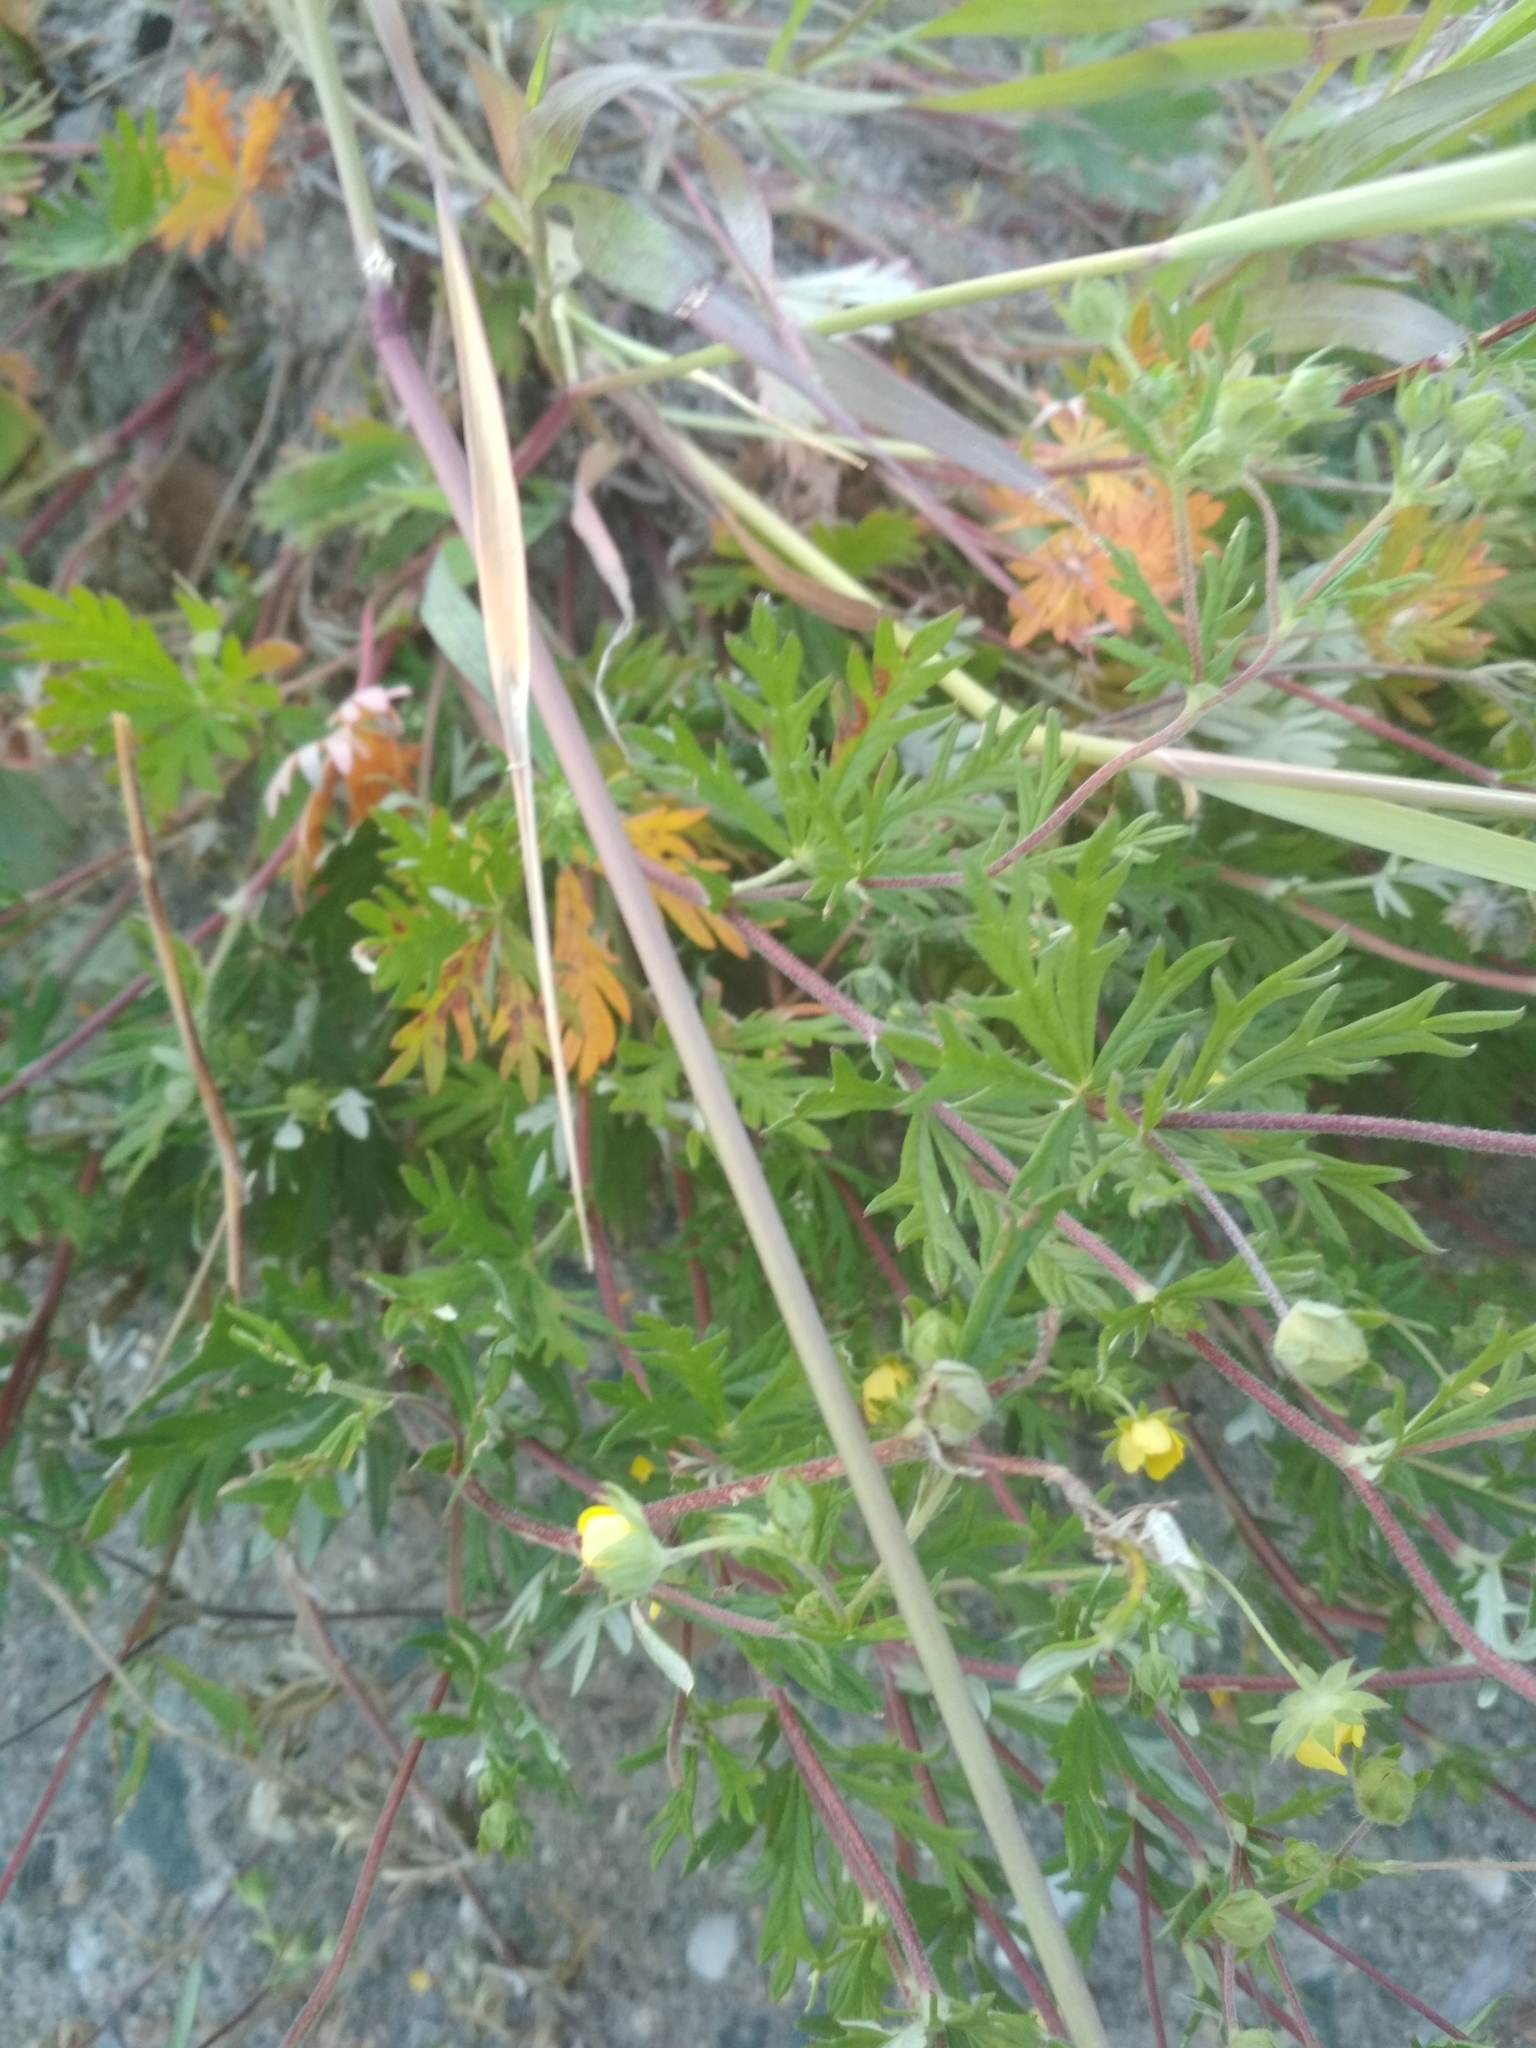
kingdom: Plantae
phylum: Tracheophyta
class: Magnoliopsida
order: Rosales
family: Rosaceae
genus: Potentilla
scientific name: Potentilla argentea
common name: Hoary cinquefoil
